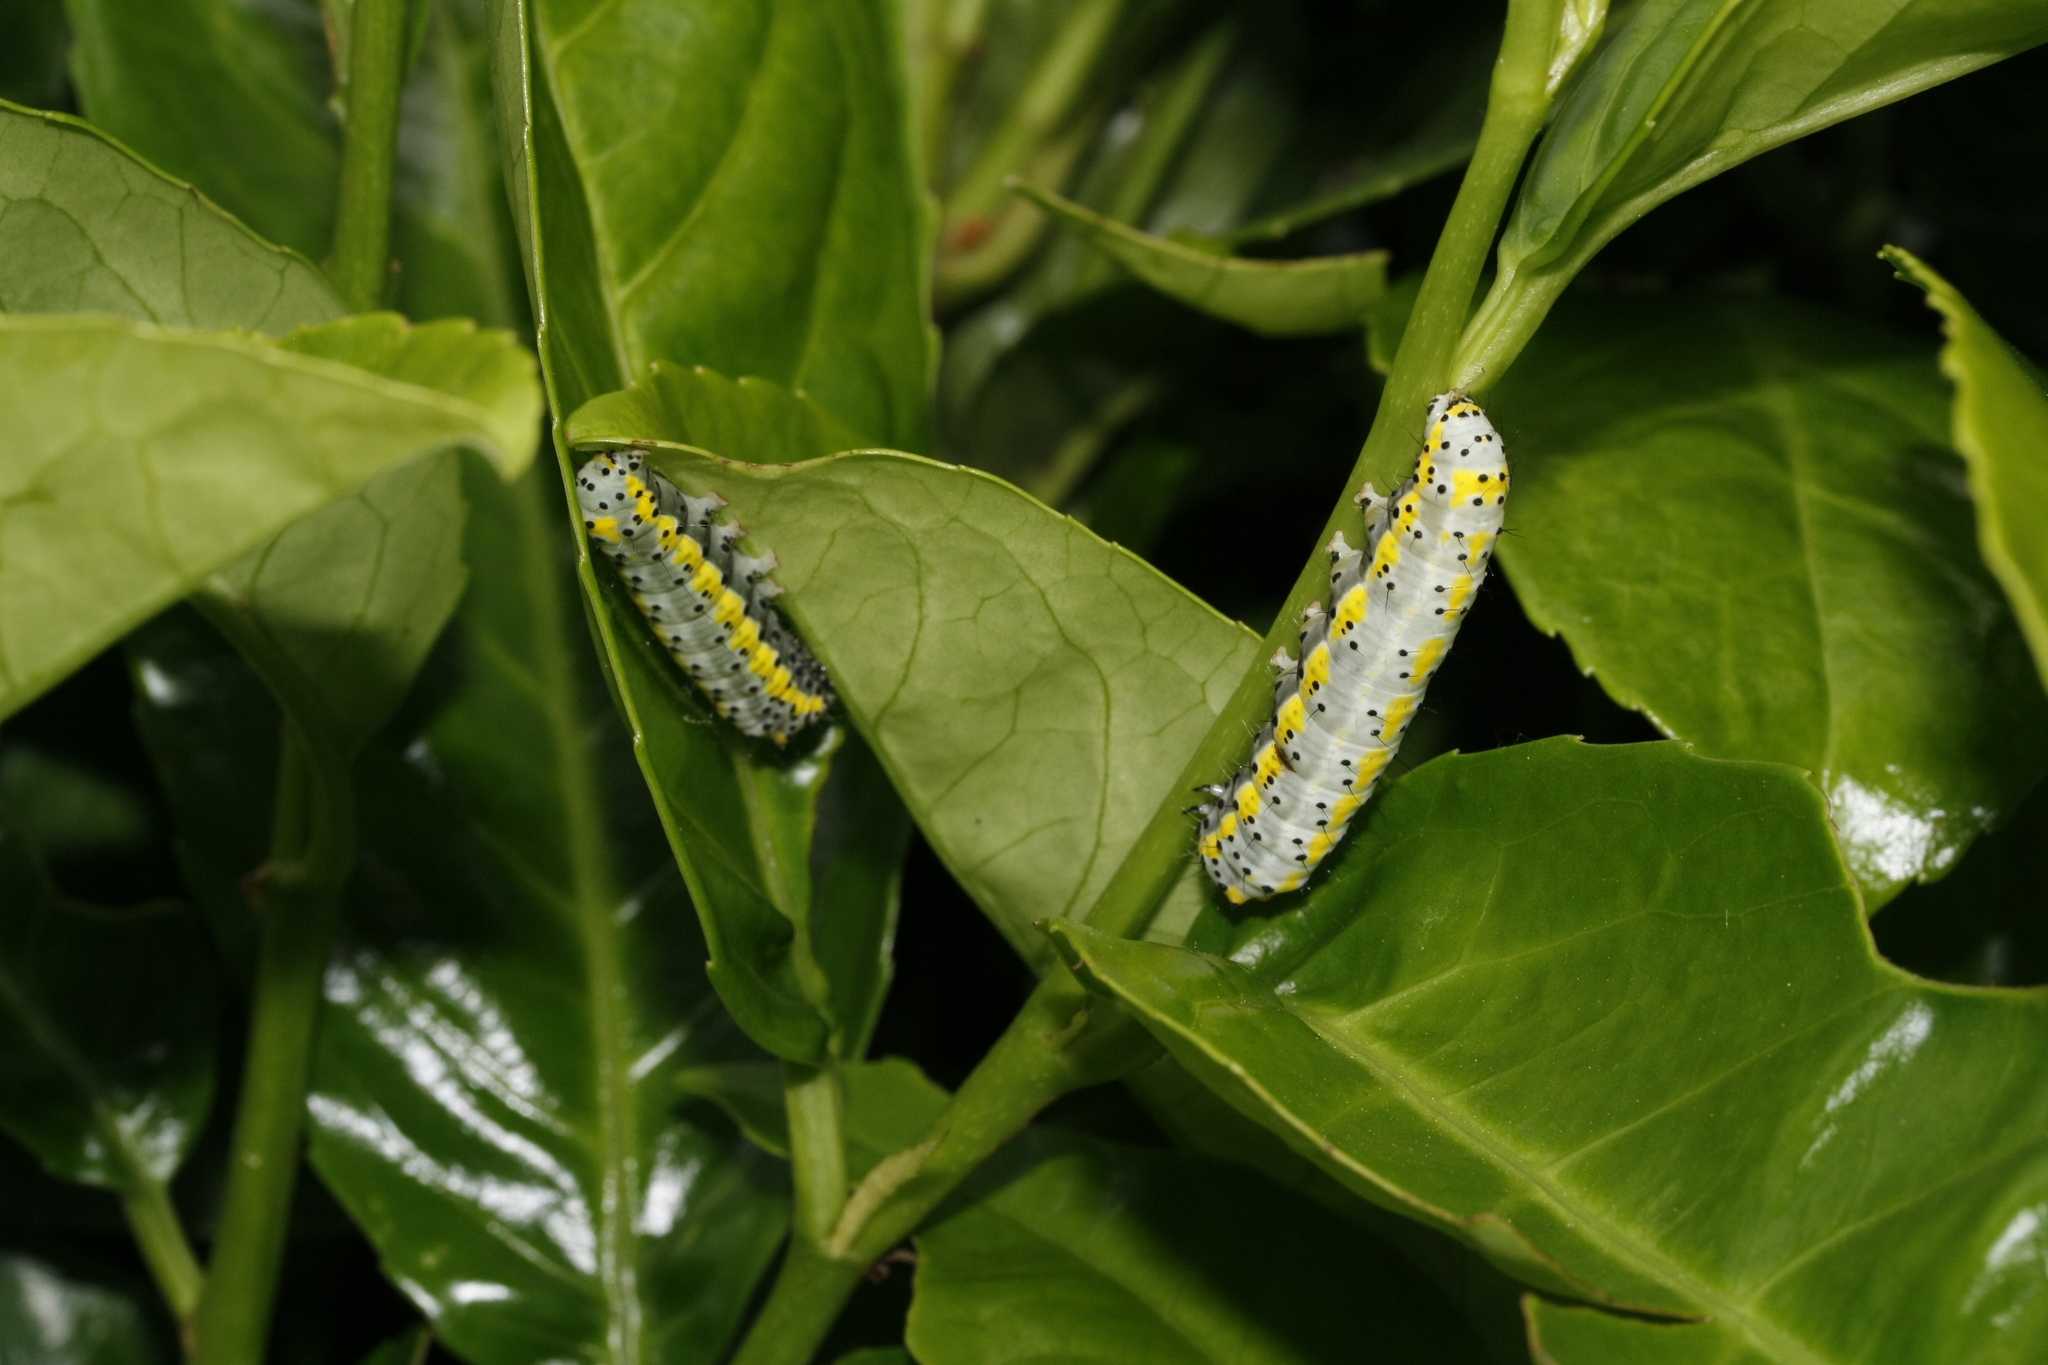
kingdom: Animalia
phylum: Arthropoda
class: Insecta
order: Lepidoptera
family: Noctuidae
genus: Diloba
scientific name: Diloba caeruleocephala
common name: Figure of eight
